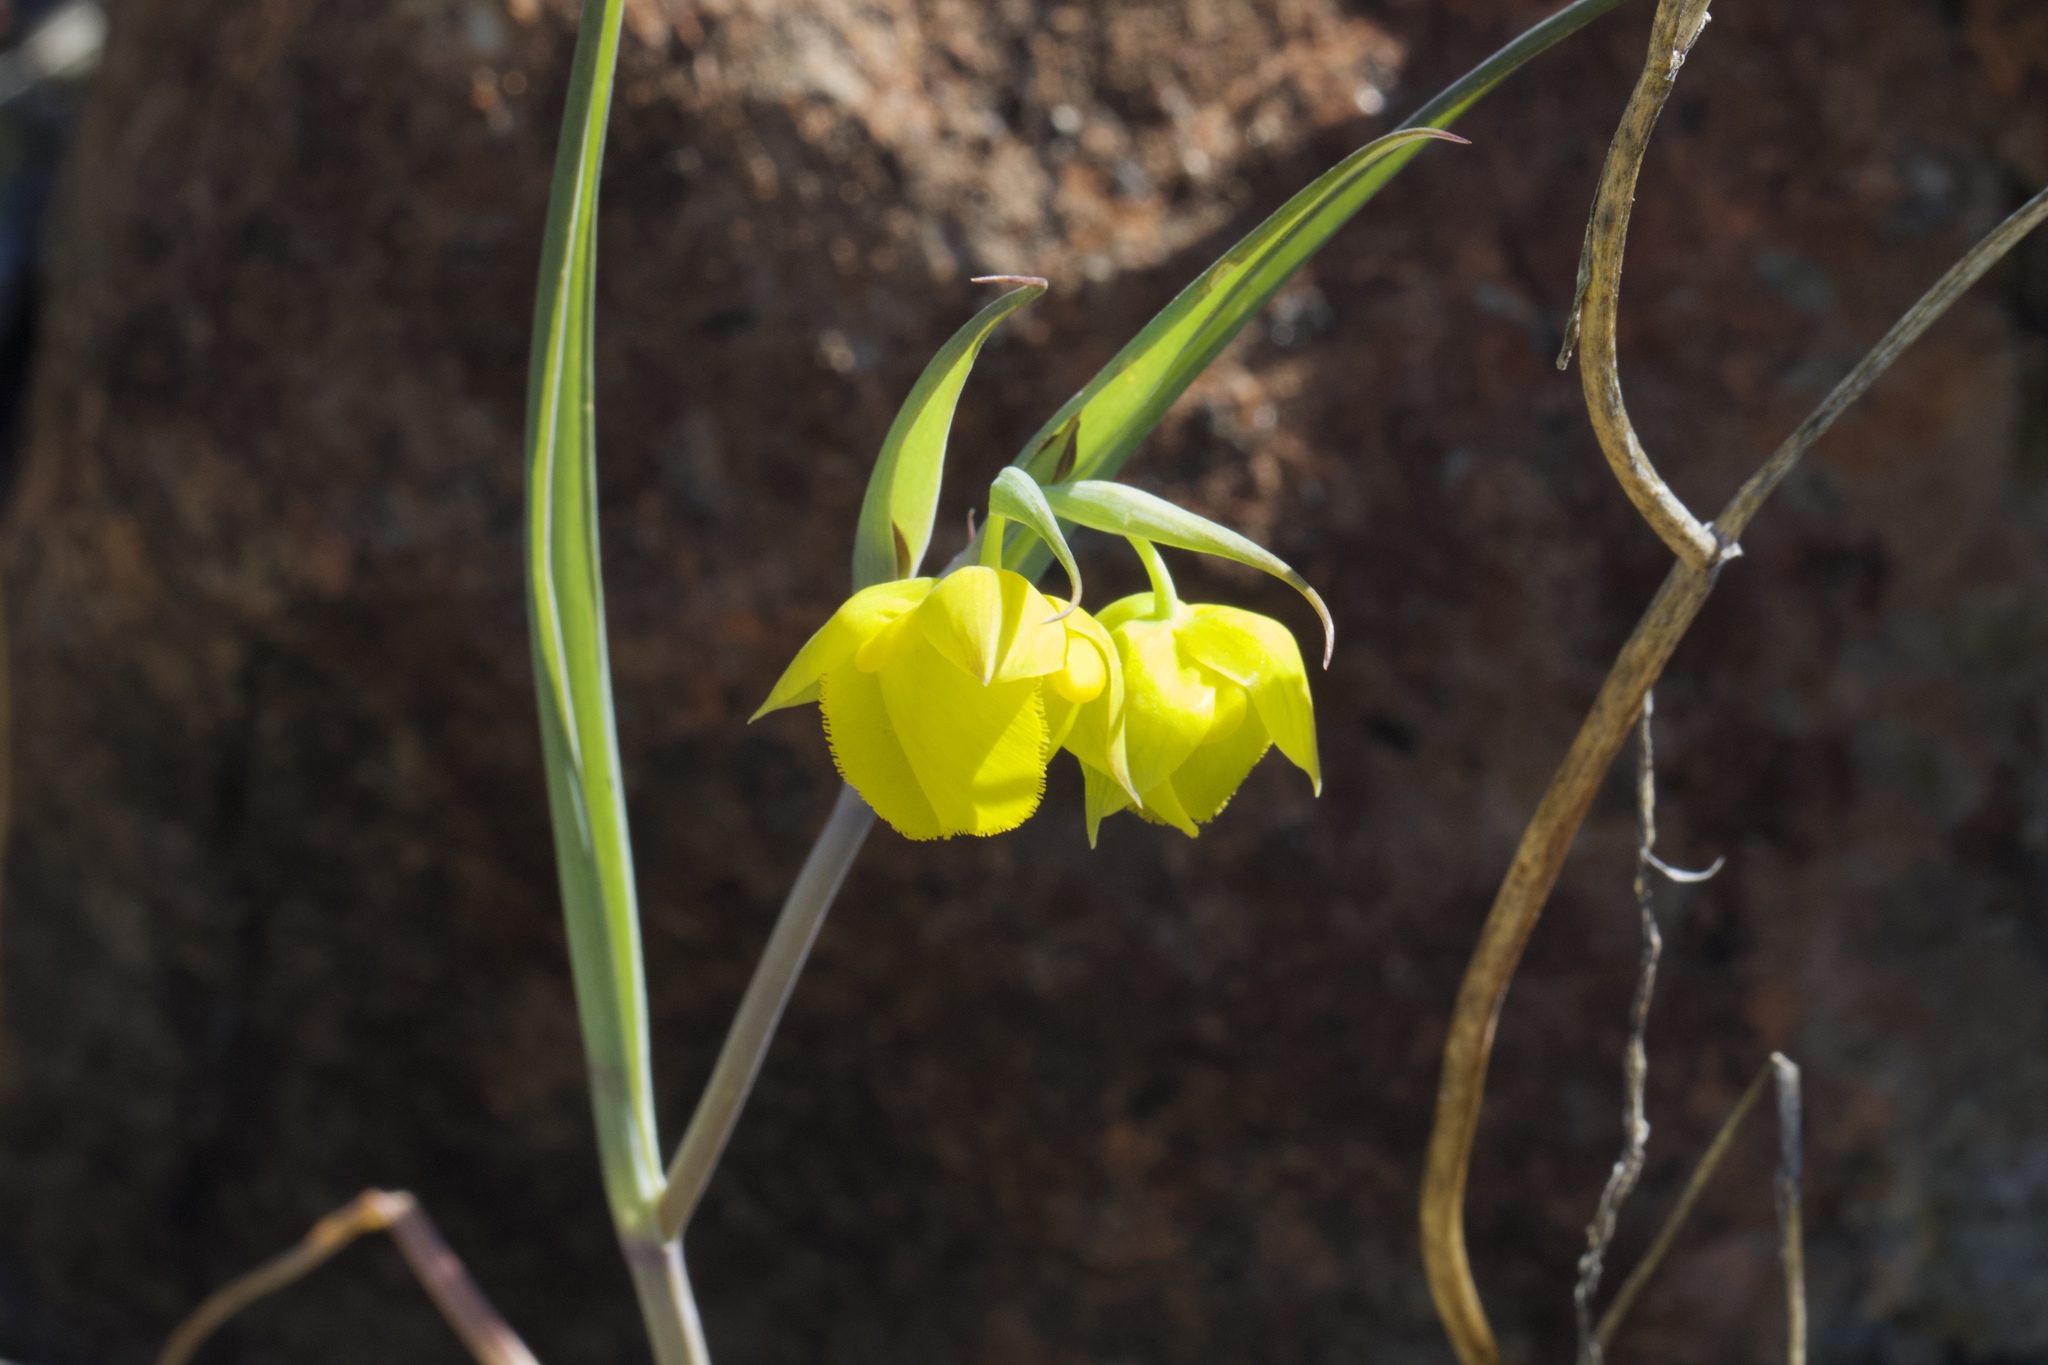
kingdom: Plantae
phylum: Tracheophyta
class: Liliopsida
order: Liliales
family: Liliaceae
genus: Calochortus
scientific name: Calochortus amabilis
